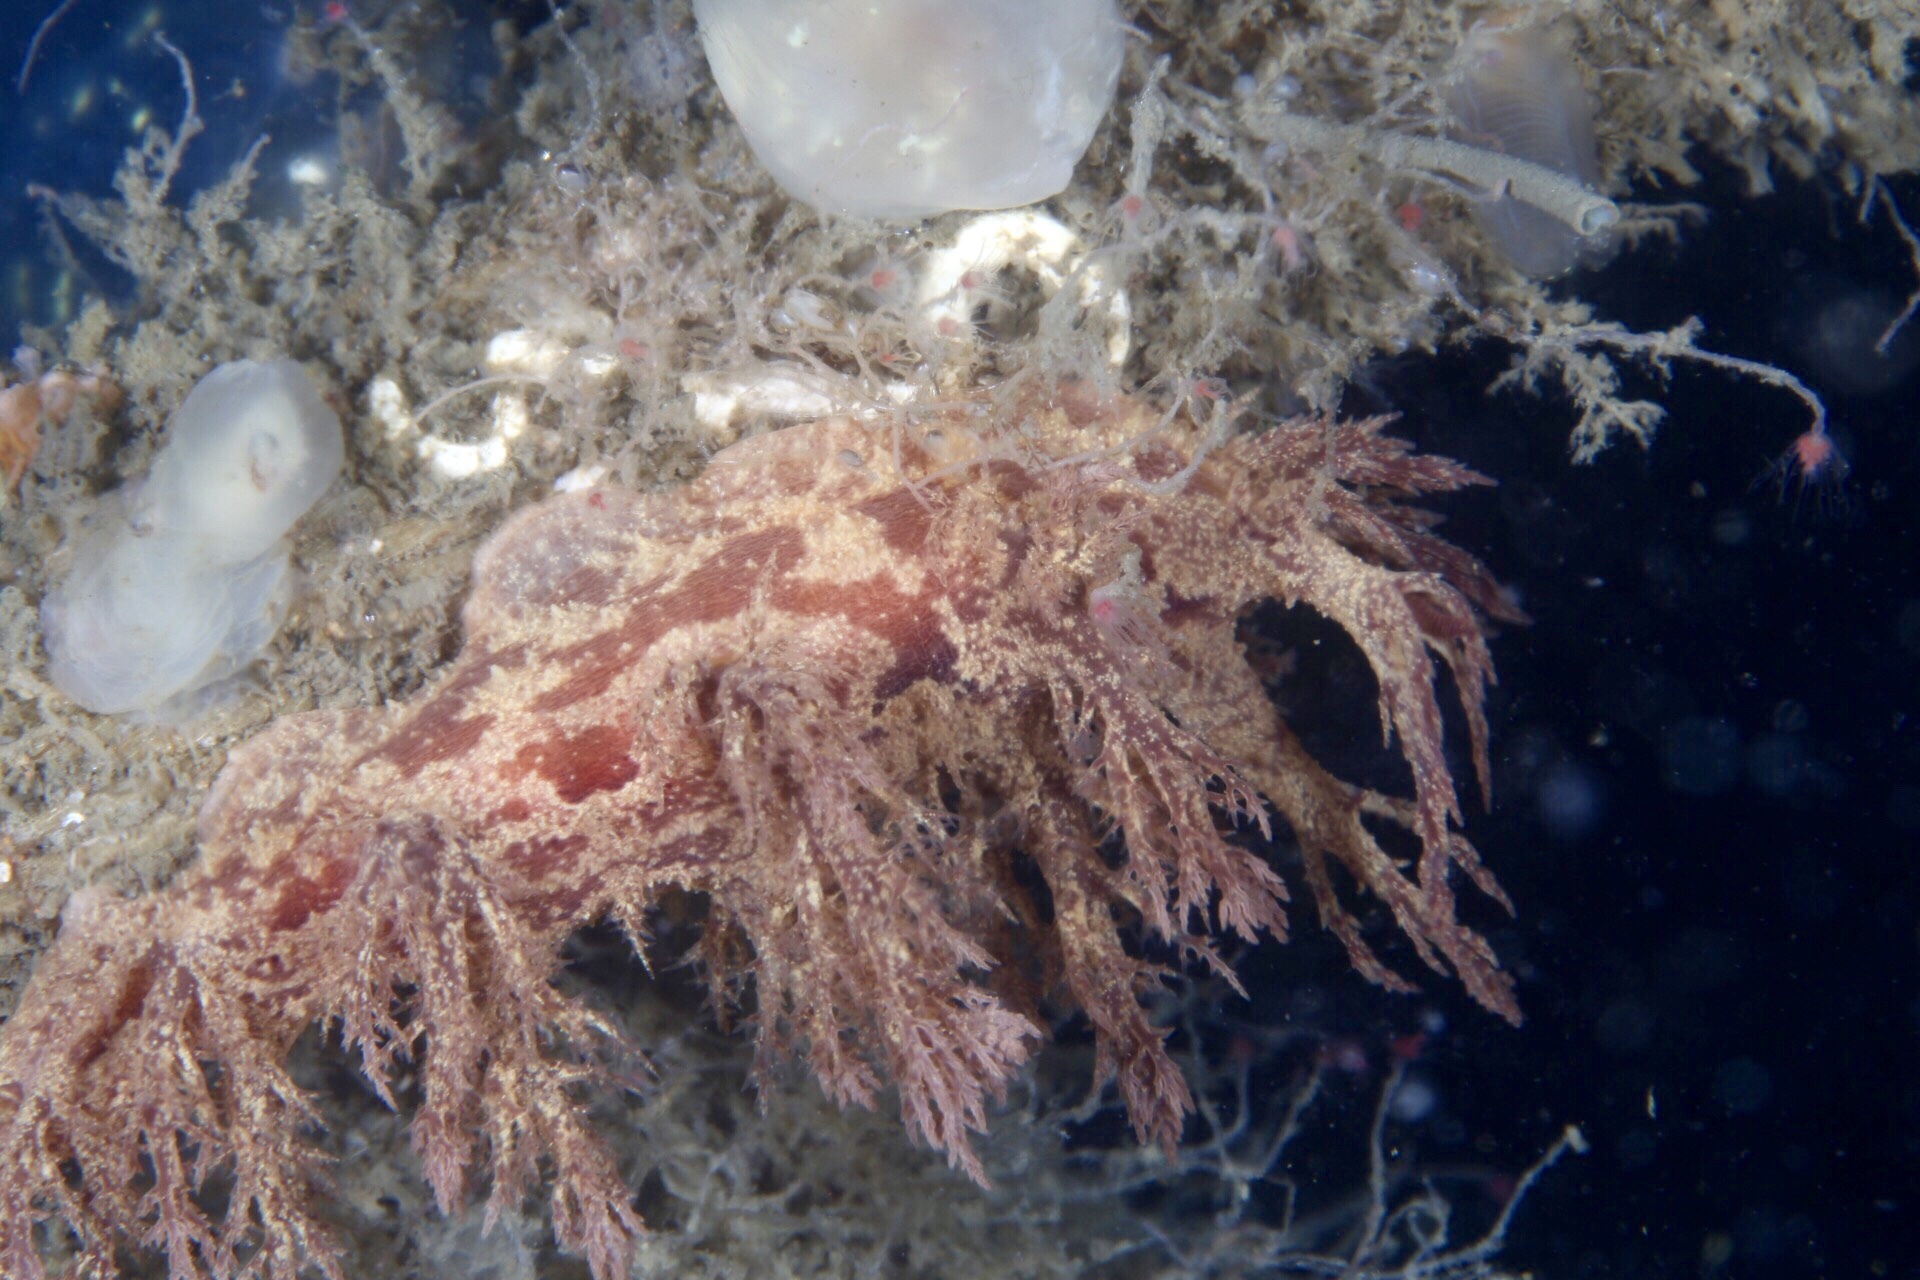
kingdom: Animalia
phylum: Mollusca
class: Gastropoda
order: Nudibranchia
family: Dendronotidae
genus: Dendronotus
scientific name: Dendronotus europaeus
